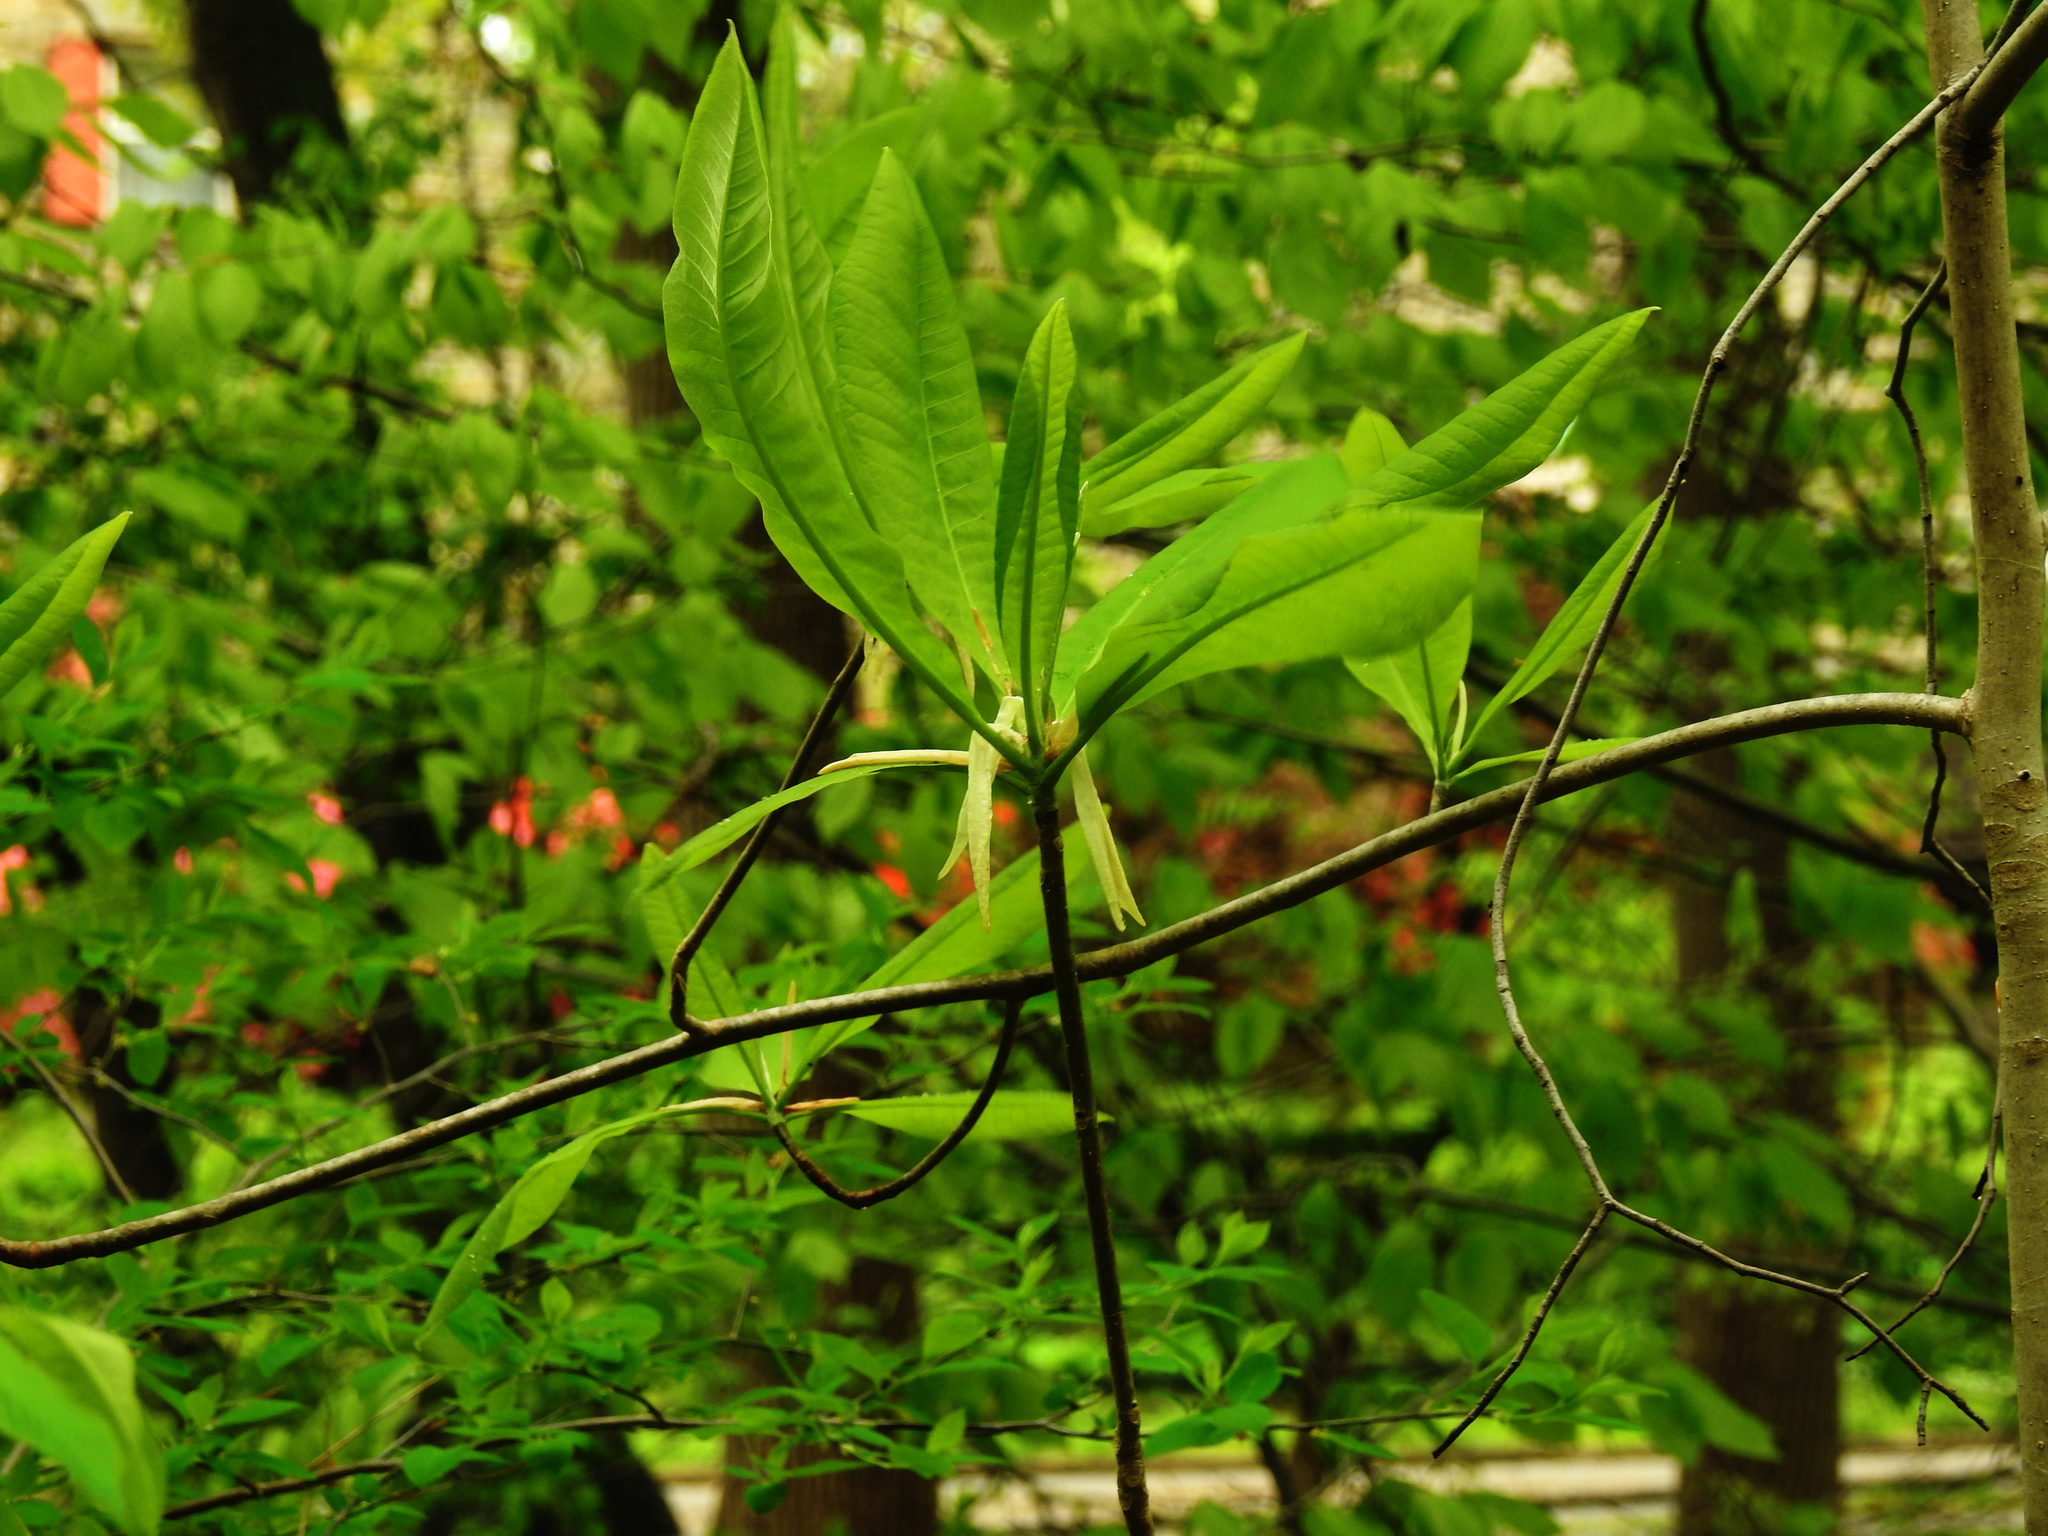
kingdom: Plantae
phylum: Tracheophyta
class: Magnoliopsida
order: Magnoliales
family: Magnoliaceae
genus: Magnolia
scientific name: Magnolia tripetala
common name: Umbrella magnolia
